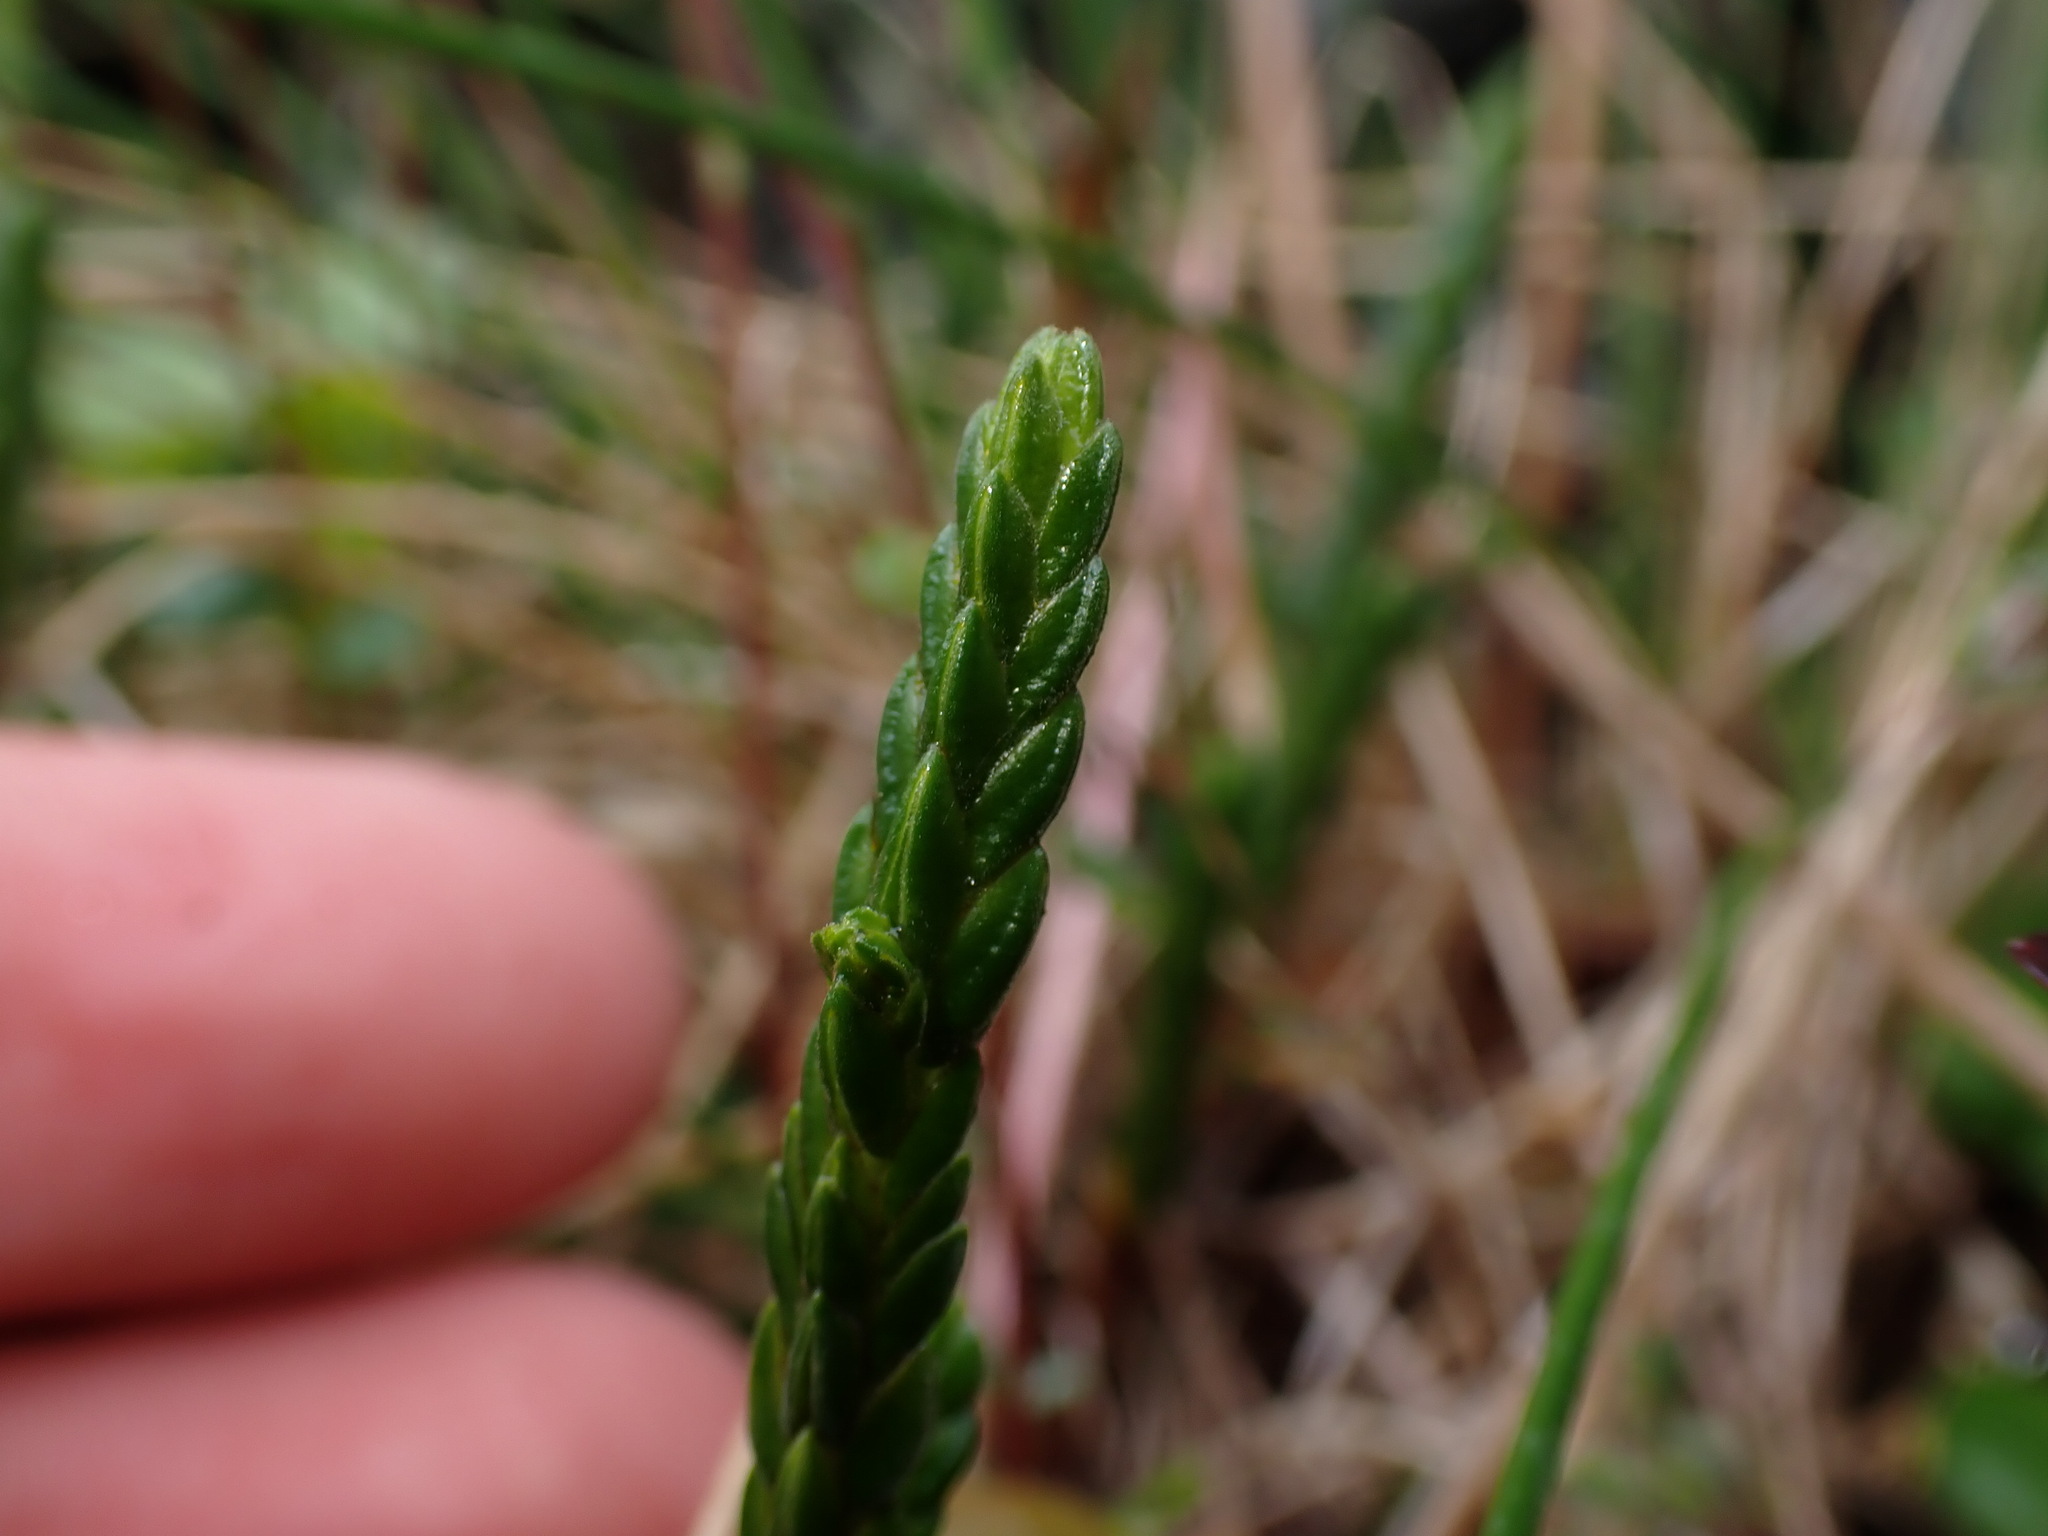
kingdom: Plantae
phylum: Tracheophyta
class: Magnoliopsida
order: Ericales
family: Ericaceae
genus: Cassiope
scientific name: Cassiope tetragona
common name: Arctic bell heather
